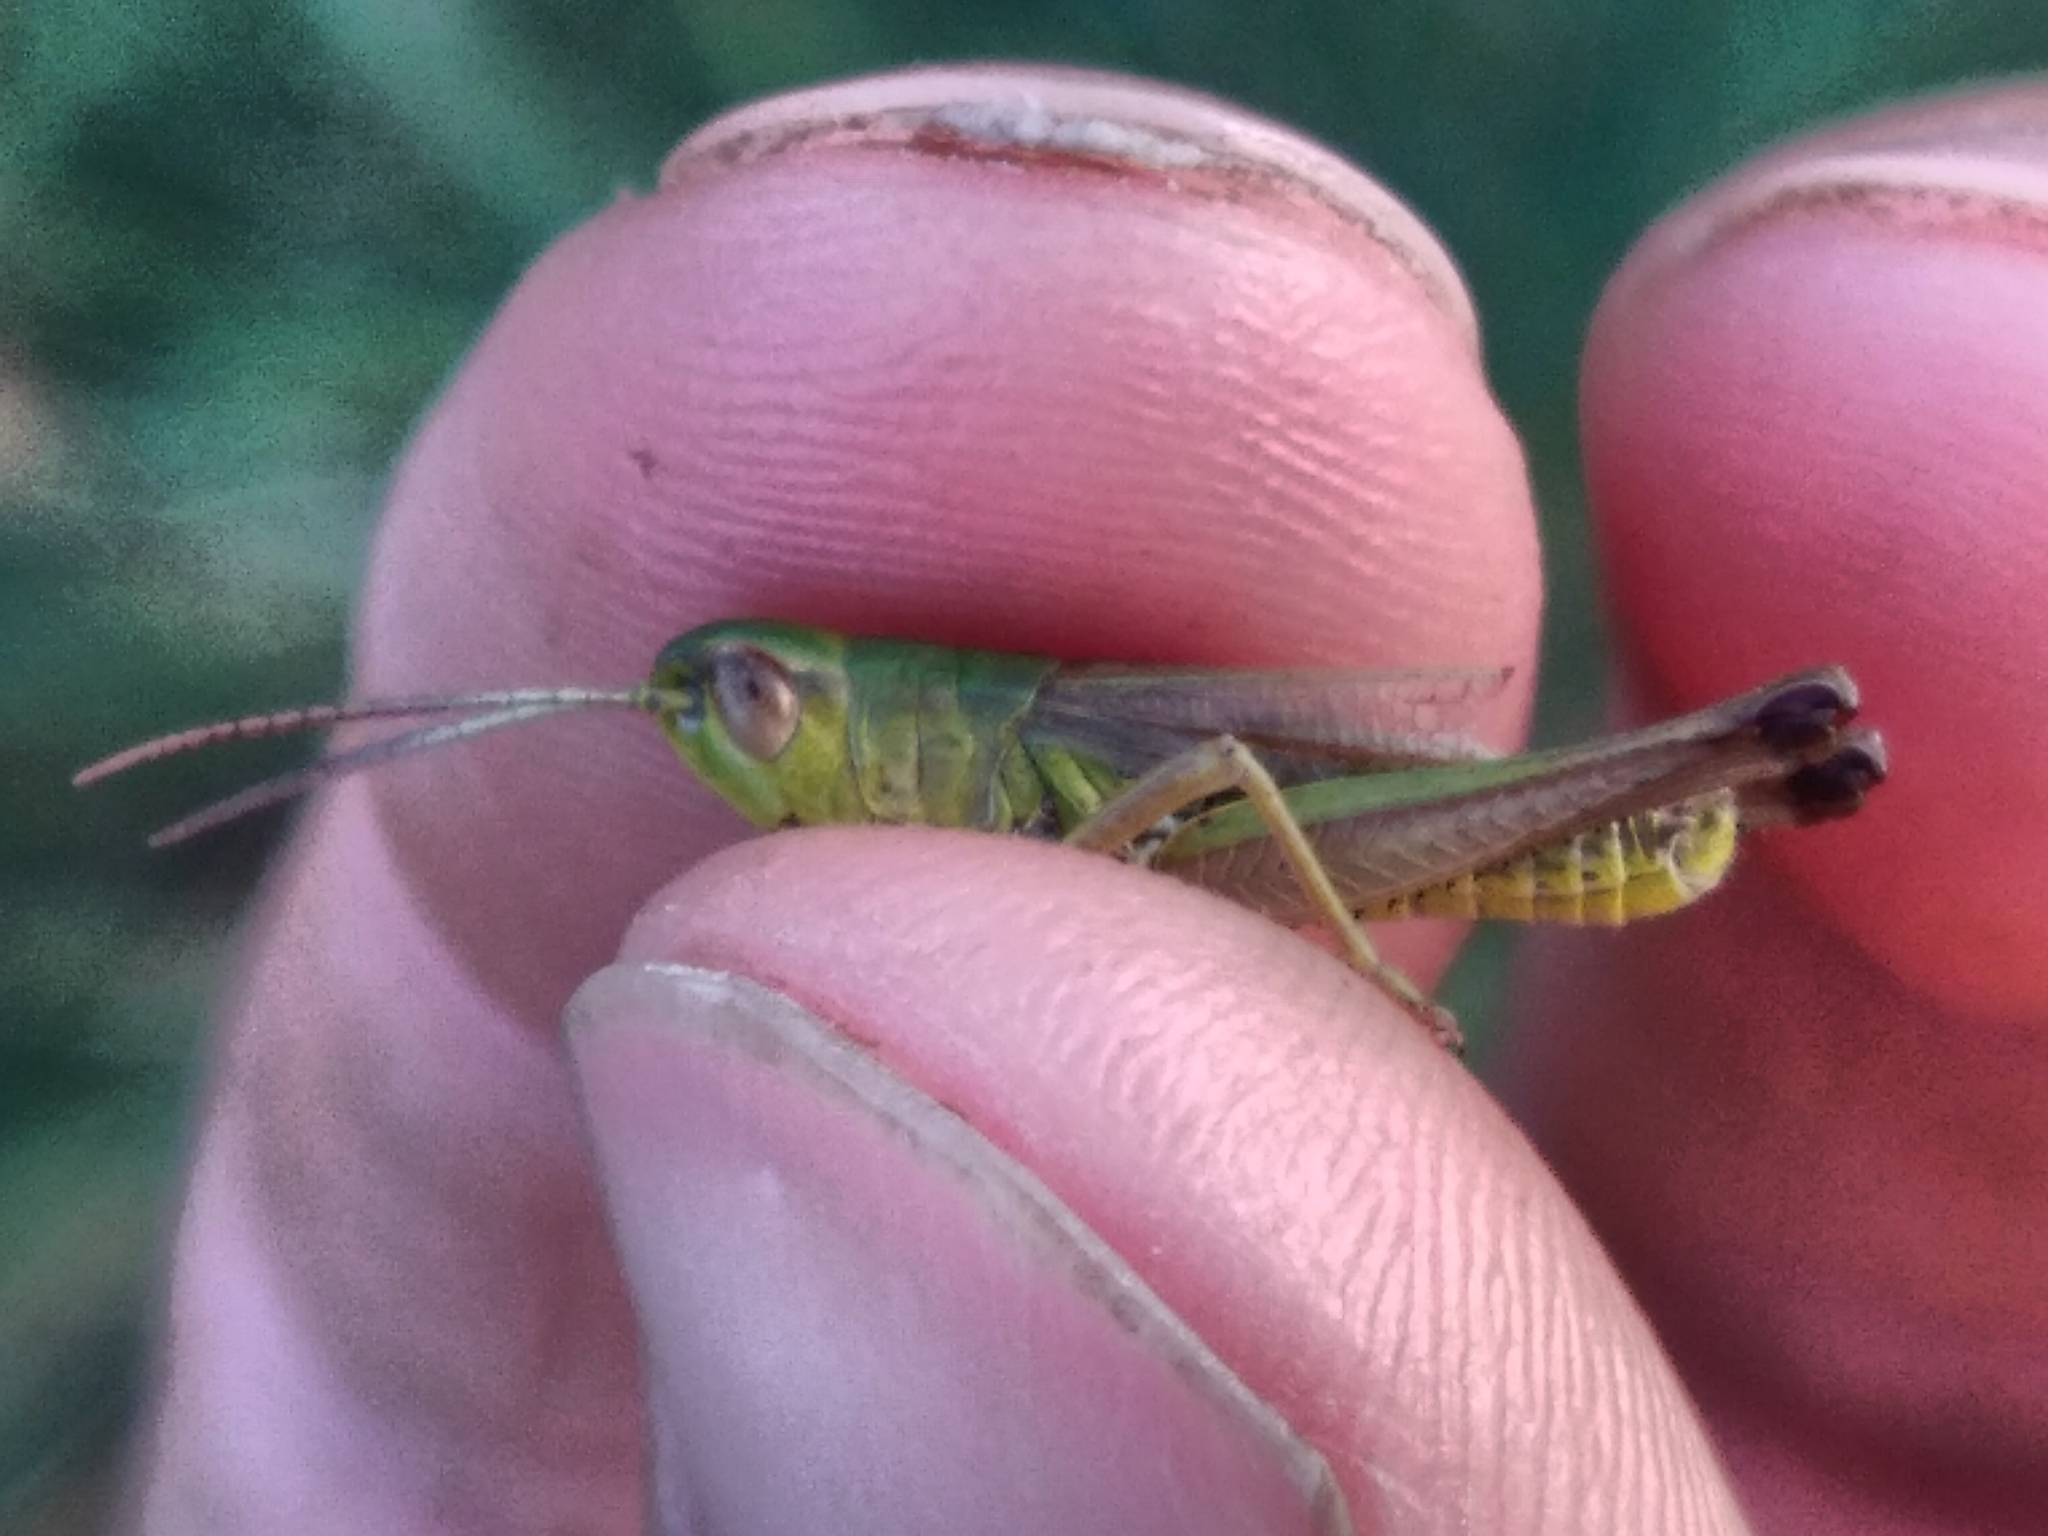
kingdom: Animalia
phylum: Arthropoda
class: Insecta
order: Orthoptera
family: Acrididae
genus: Pseudochorthippus
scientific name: Pseudochorthippus parallelus
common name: Meadow grasshopper
